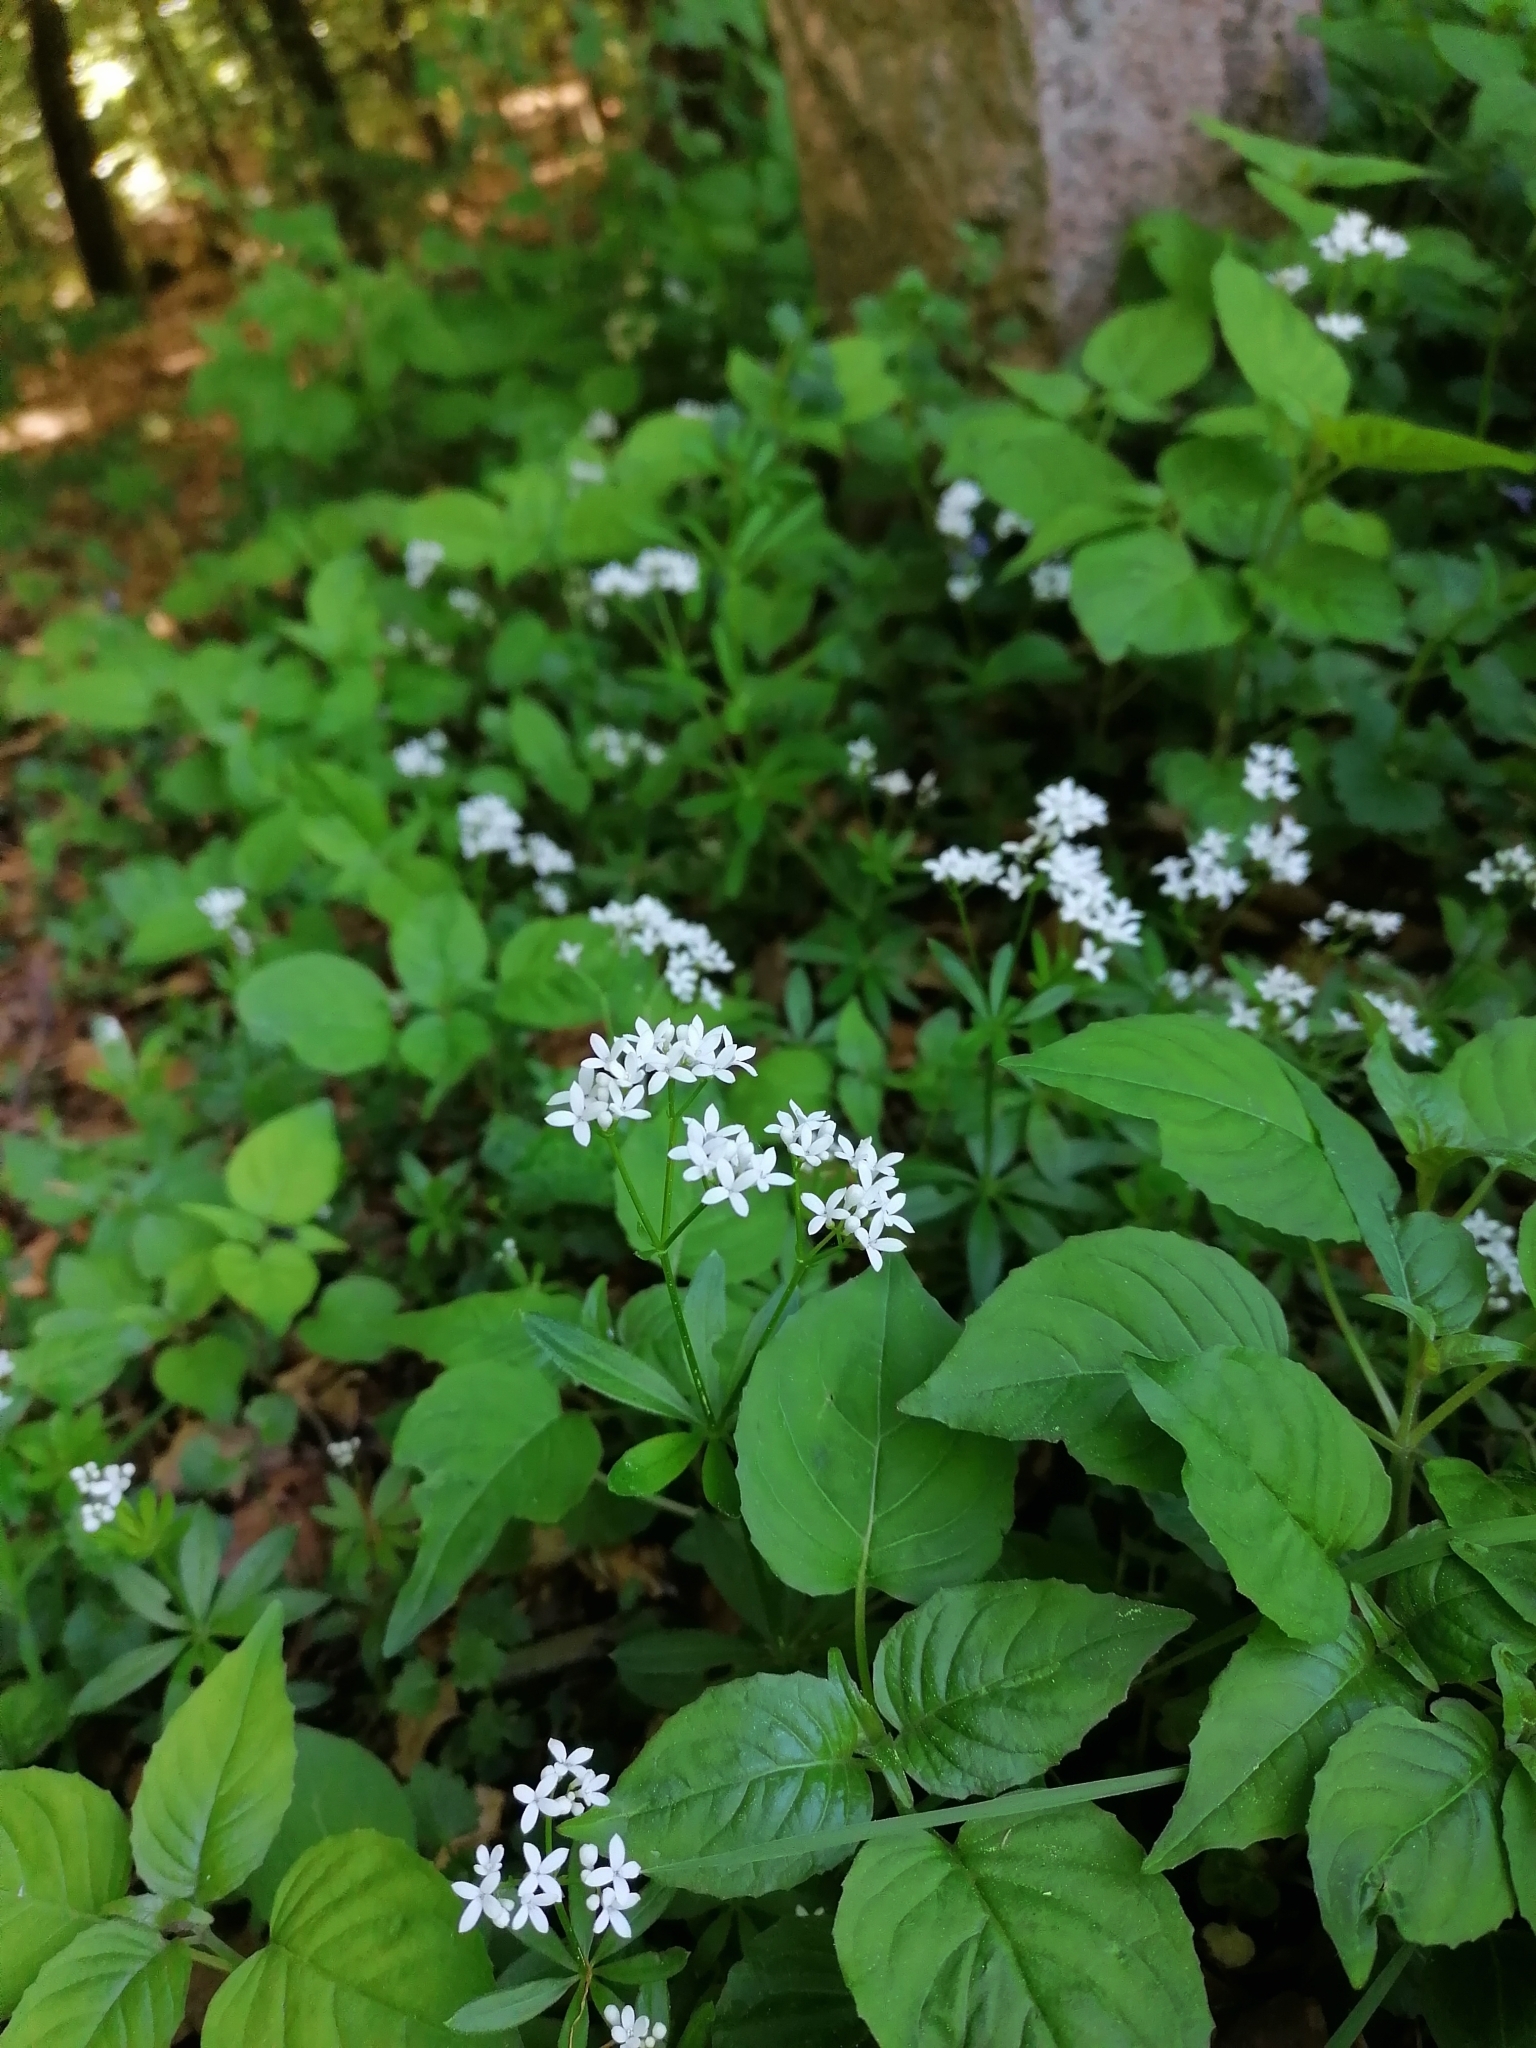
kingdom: Plantae
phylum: Tracheophyta
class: Magnoliopsida
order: Gentianales
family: Rubiaceae
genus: Galium
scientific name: Galium odoratum
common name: Sweet woodruff
